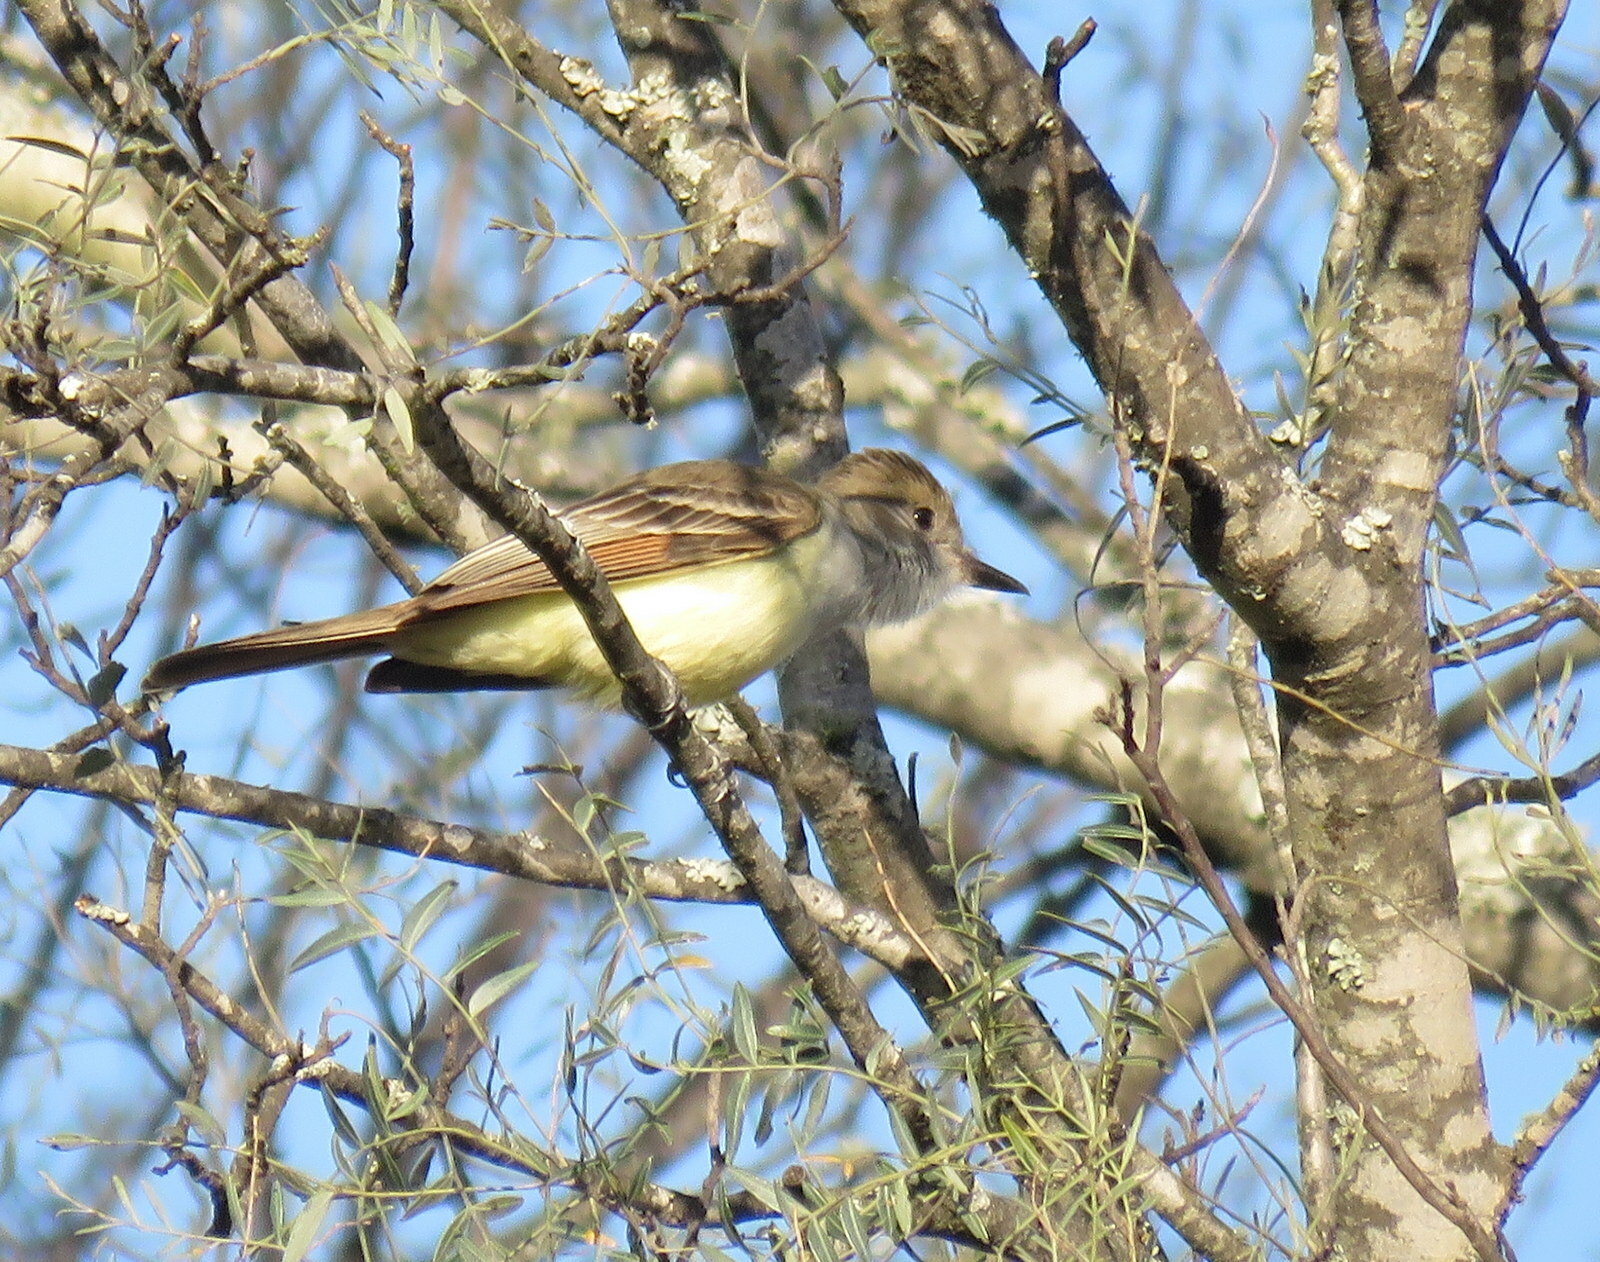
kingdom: Animalia
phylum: Chordata
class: Aves
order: Passeriformes
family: Tyrannidae
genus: Myiarchus
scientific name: Myiarchus tyrannulus
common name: Brown-crested flycatcher
